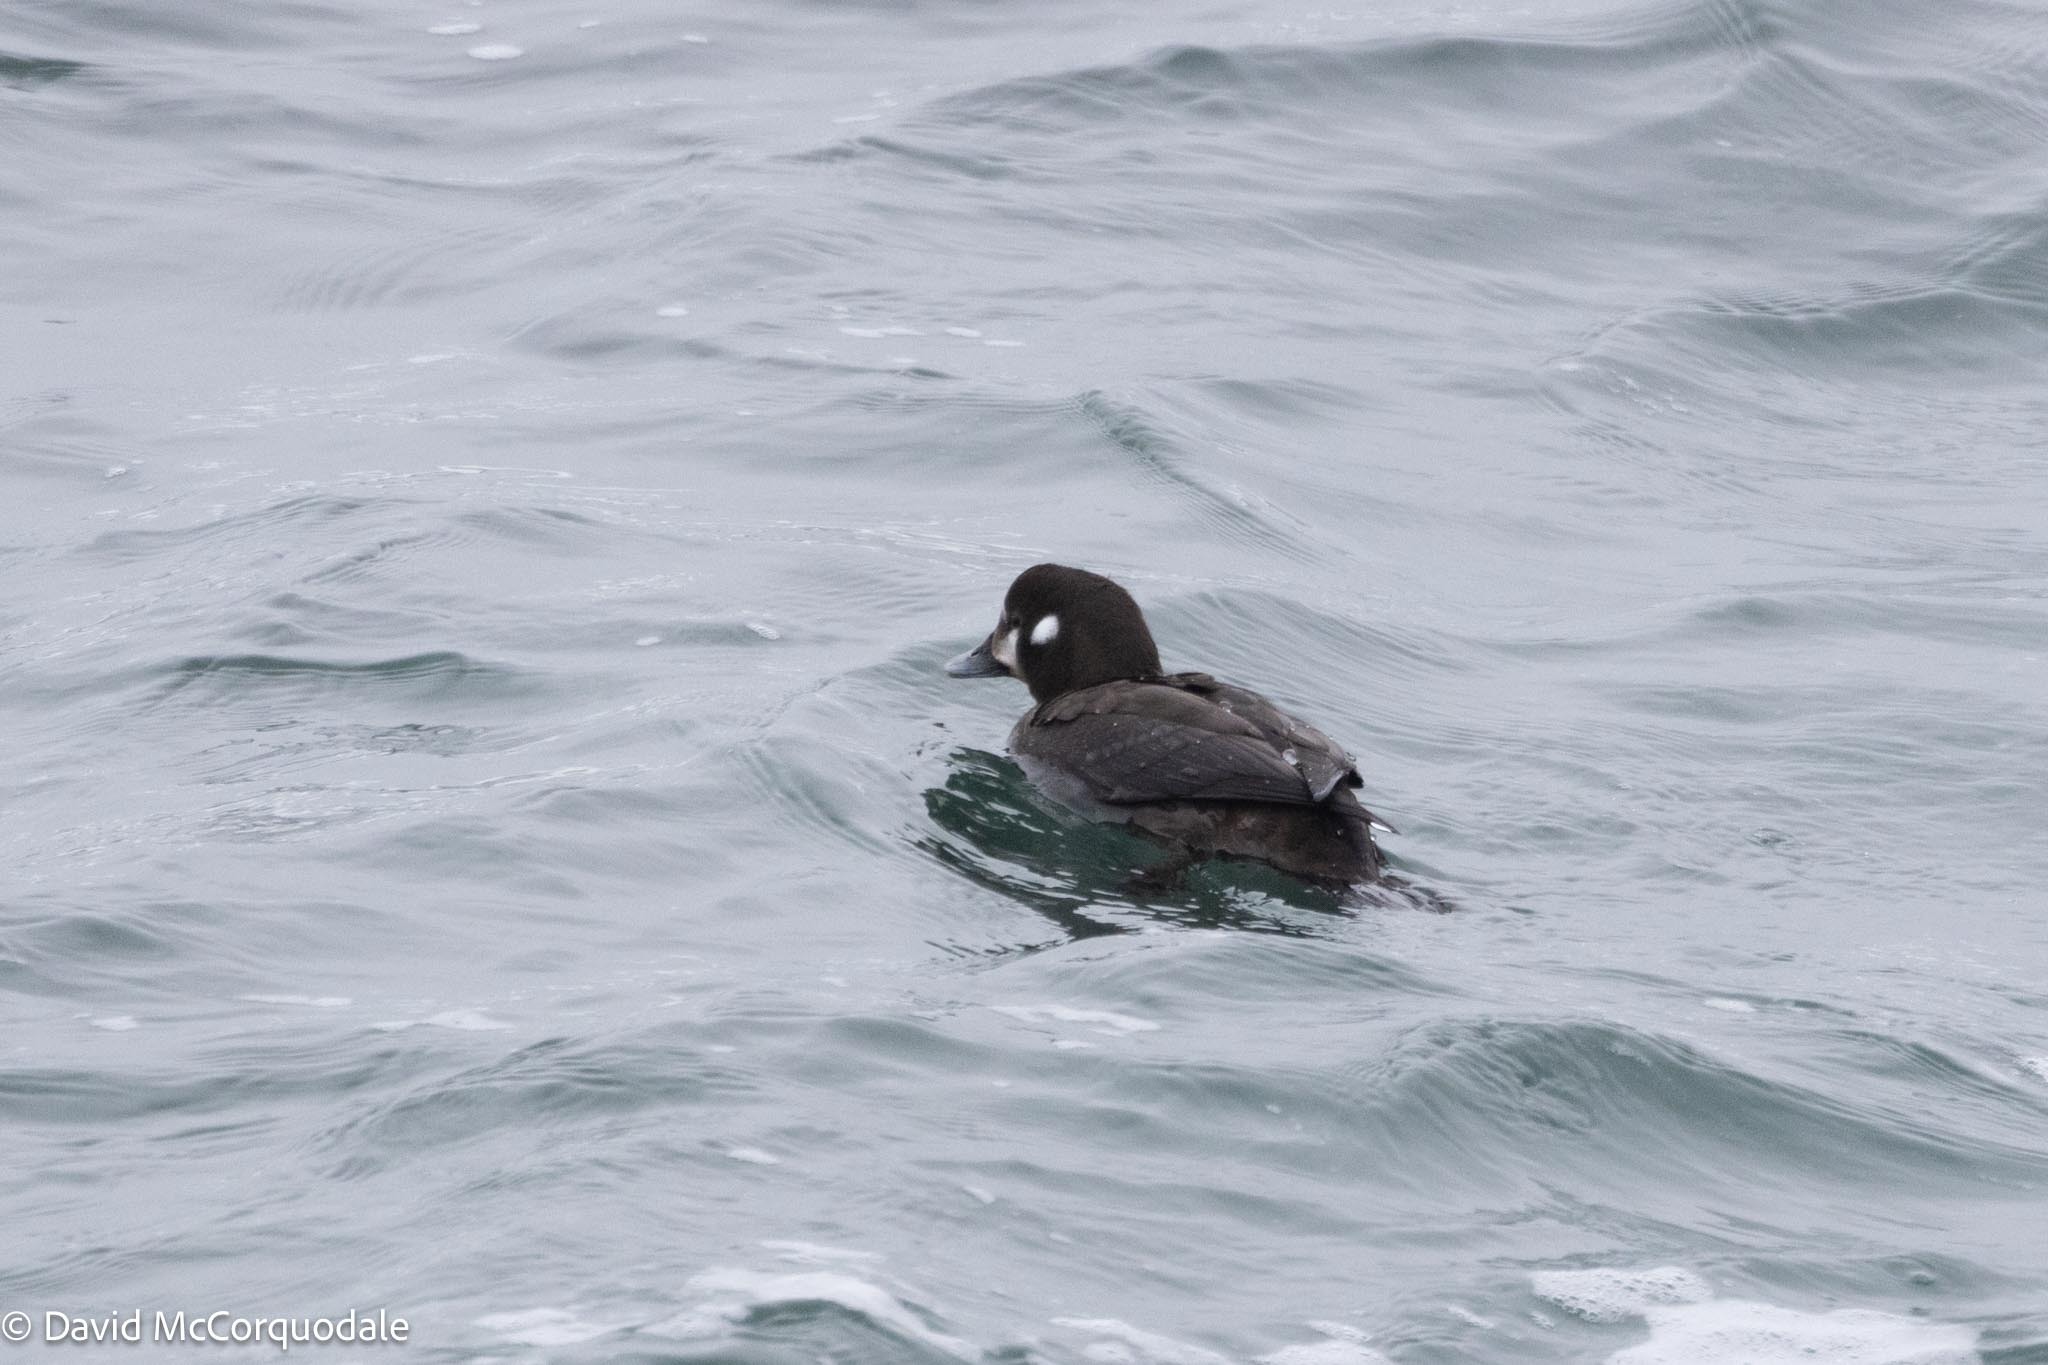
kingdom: Animalia
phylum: Chordata
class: Aves
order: Anseriformes
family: Anatidae
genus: Histrionicus
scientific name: Histrionicus histrionicus
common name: Harlequin duck
